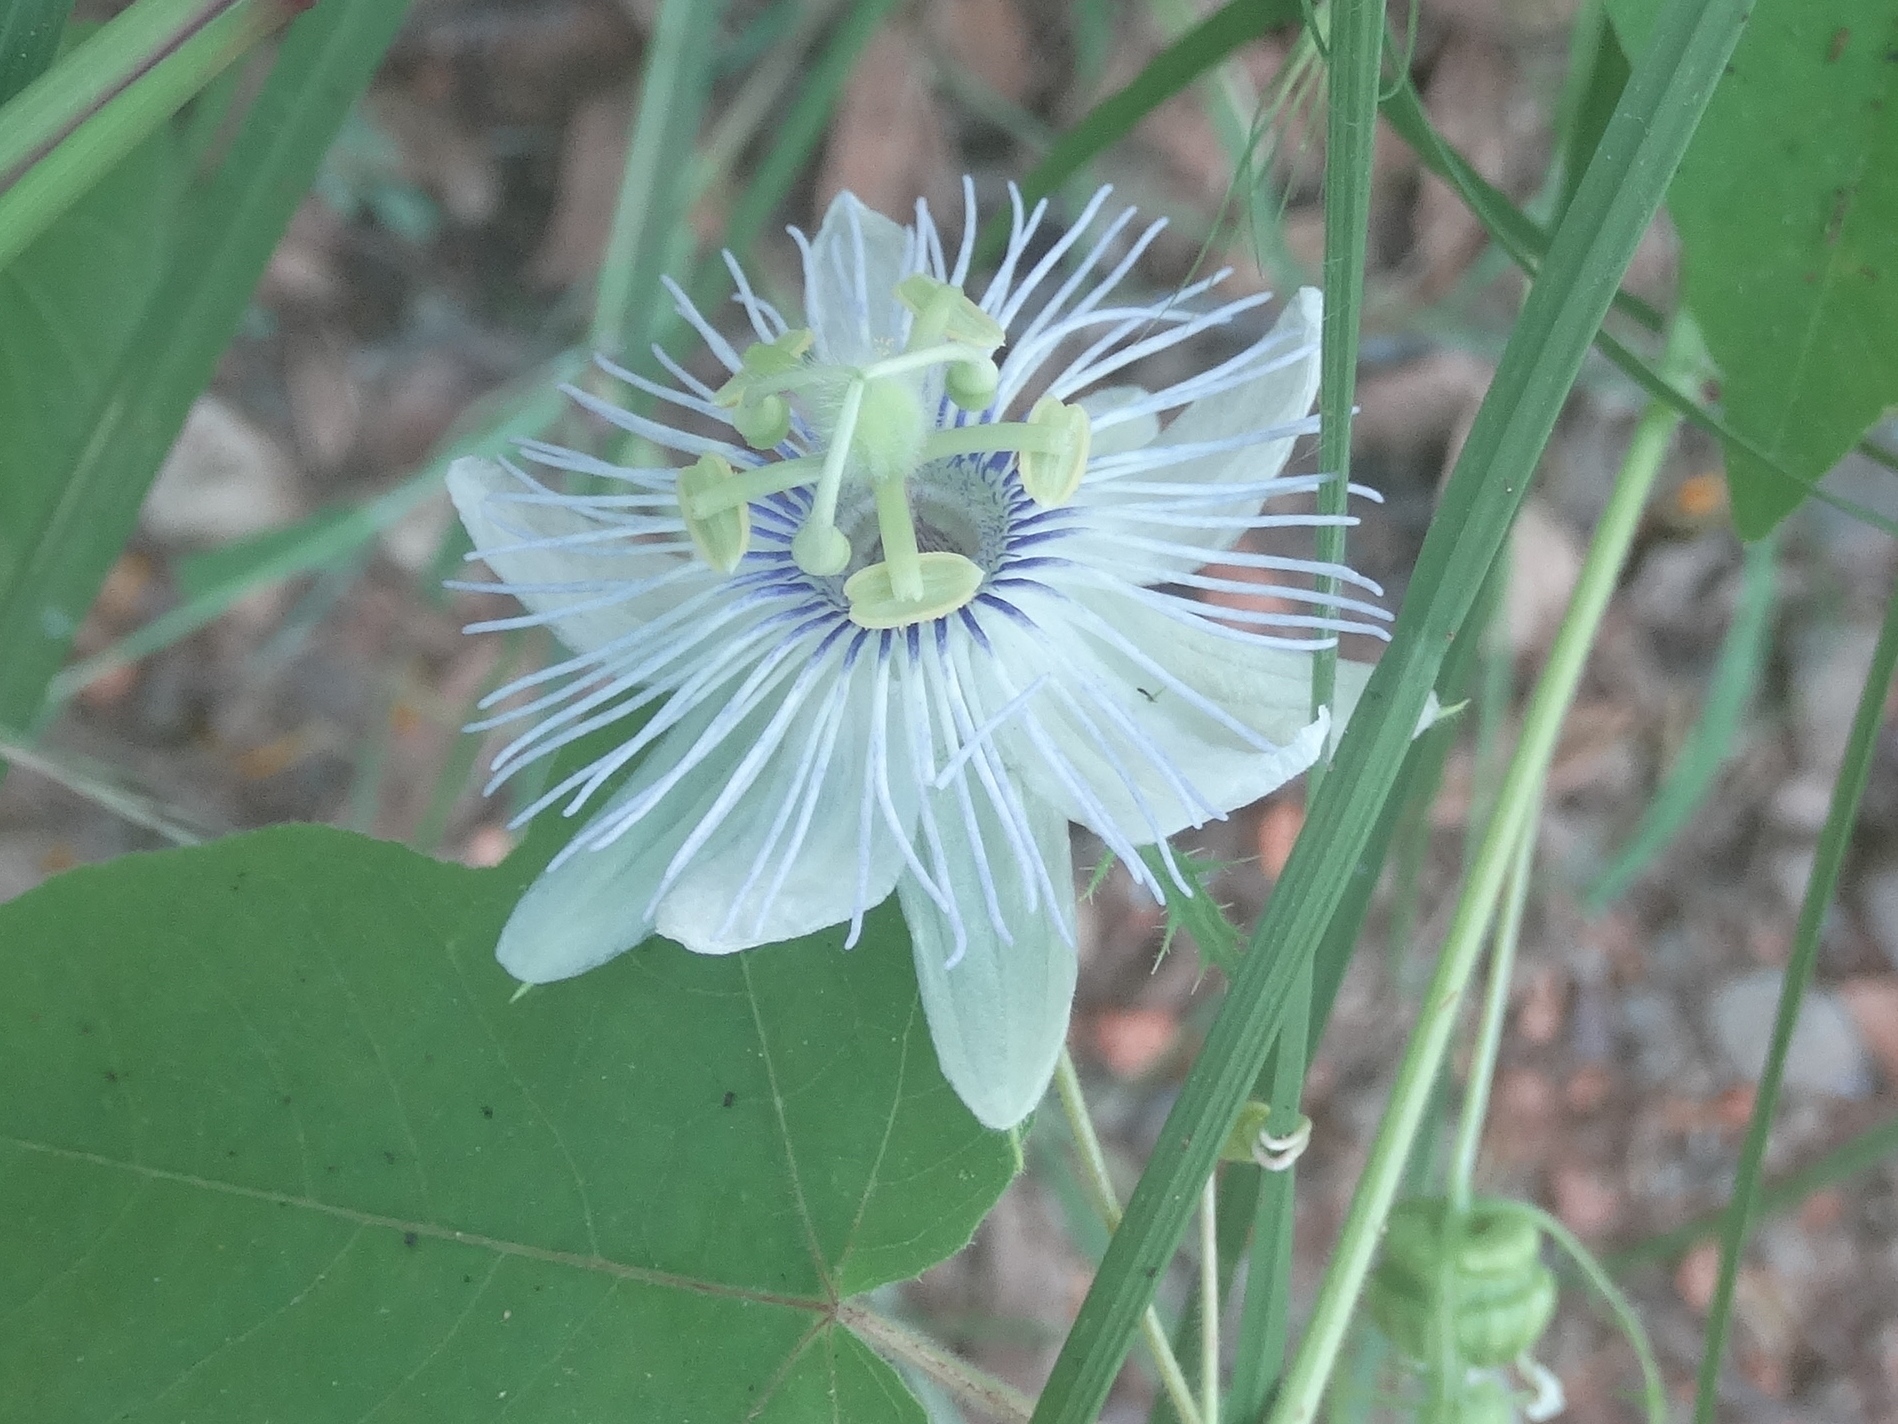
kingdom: Plantae
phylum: Tracheophyta
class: Magnoliopsida
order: Malpighiales
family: Passifloraceae
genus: Passiflora
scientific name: Passiflora foetida
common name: Fetid passionflower
